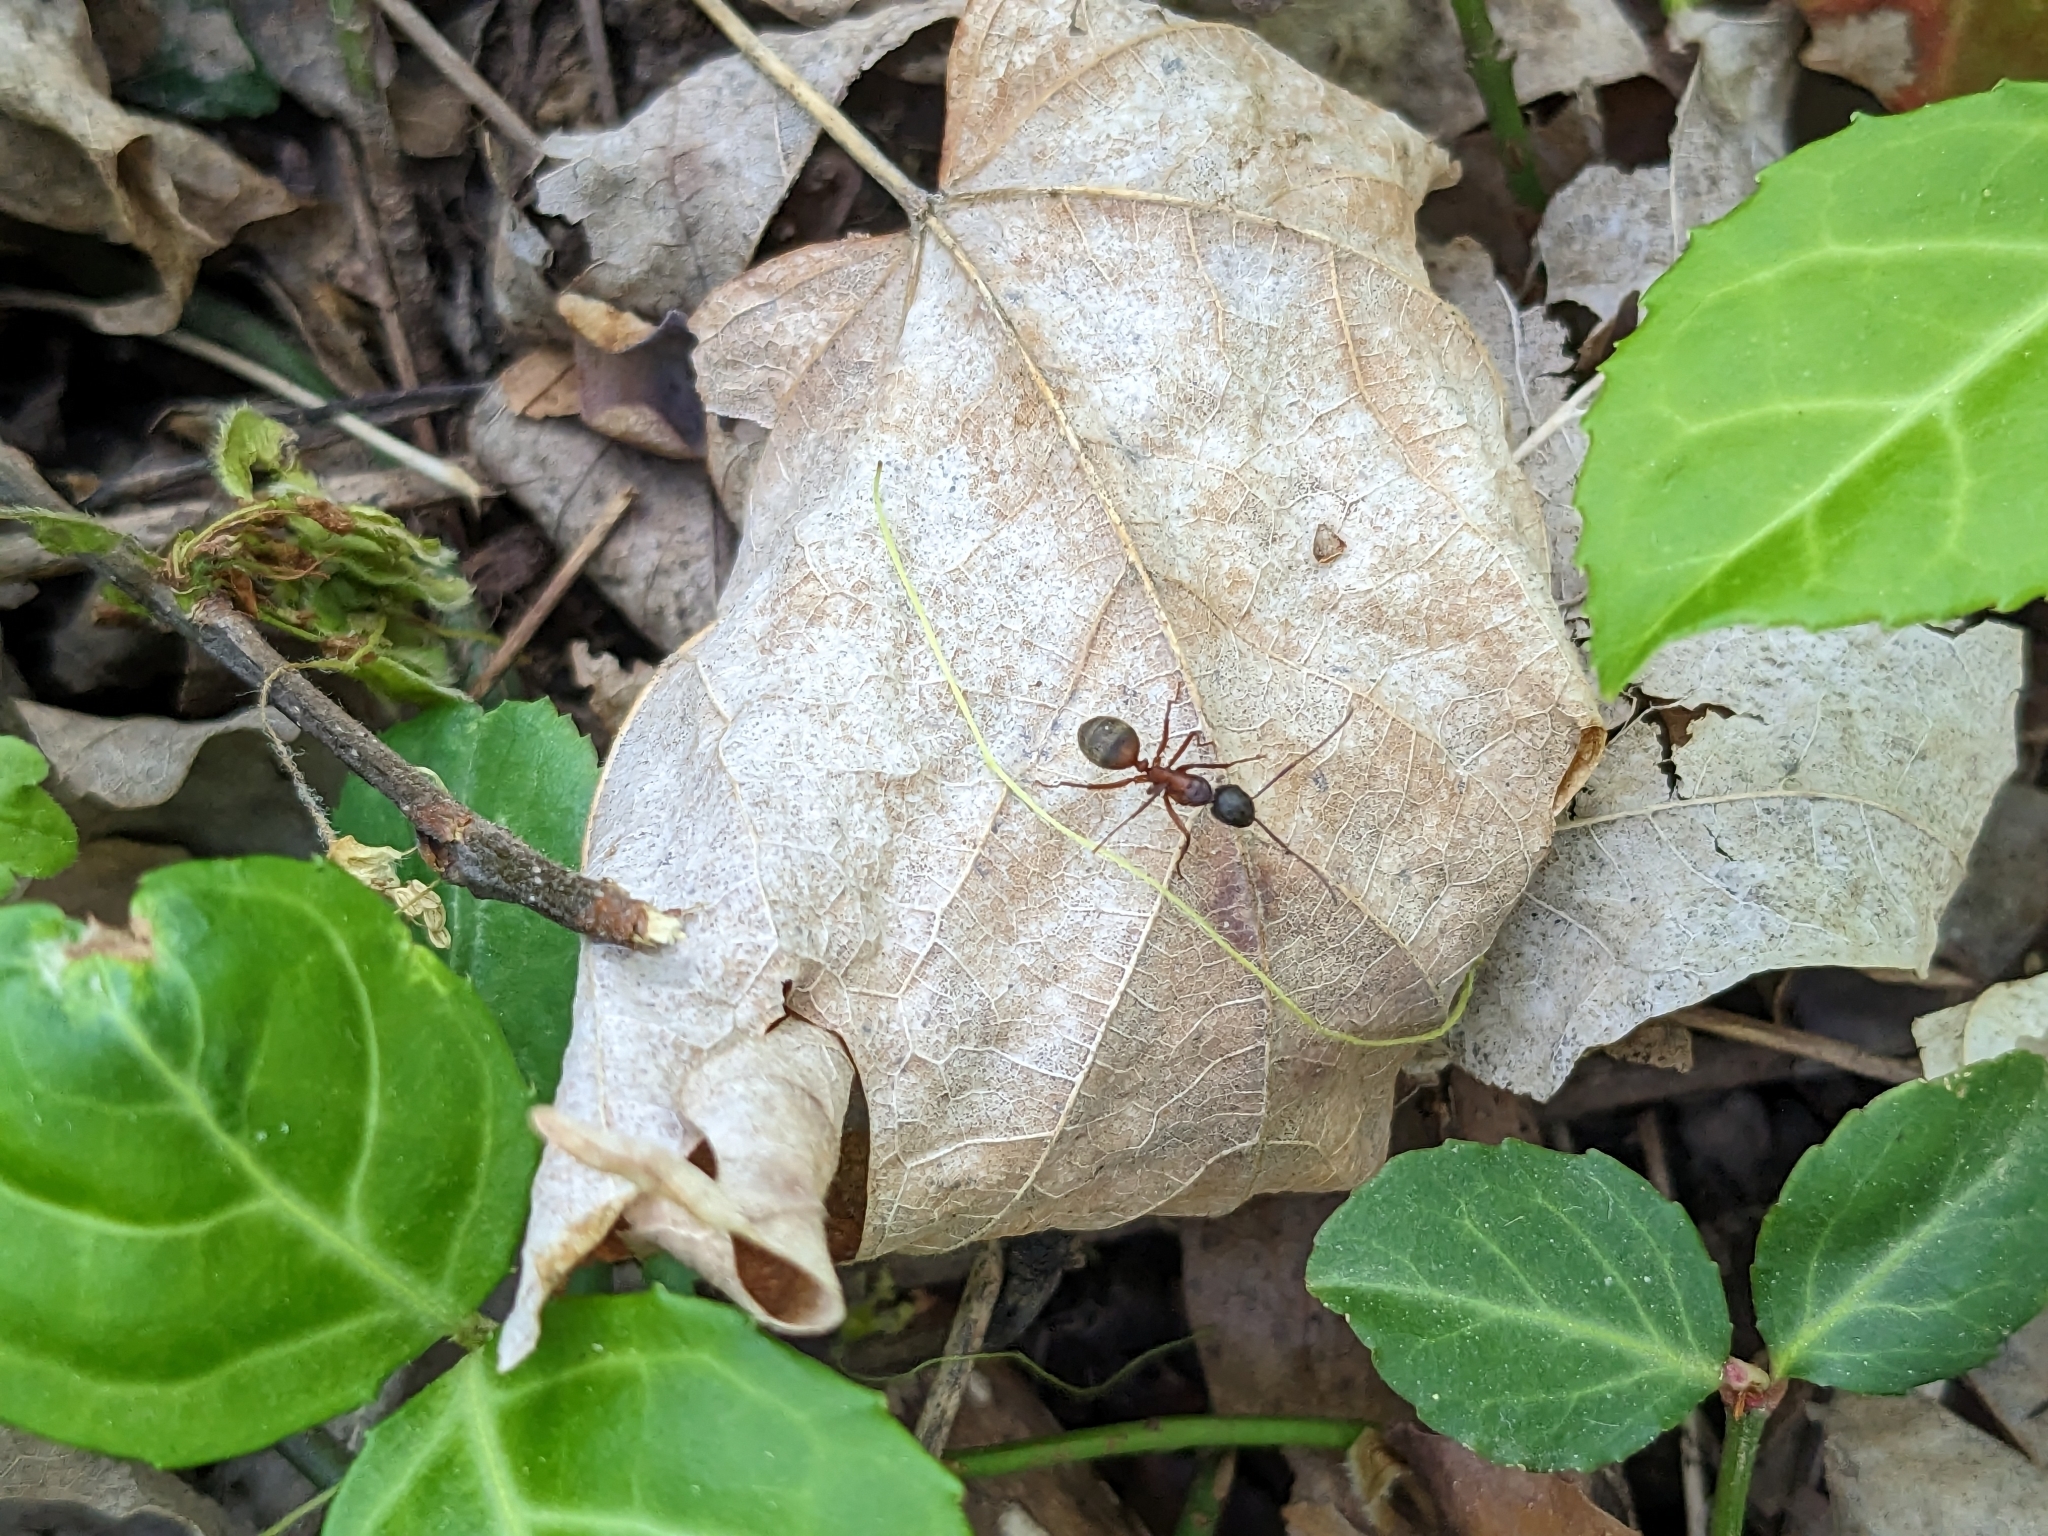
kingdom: Animalia
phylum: Arthropoda
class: Insecta
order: Hymenoptera
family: Formicidae
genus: Camponotus
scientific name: Camponotus chromaiodes
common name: Red carpenter ant
